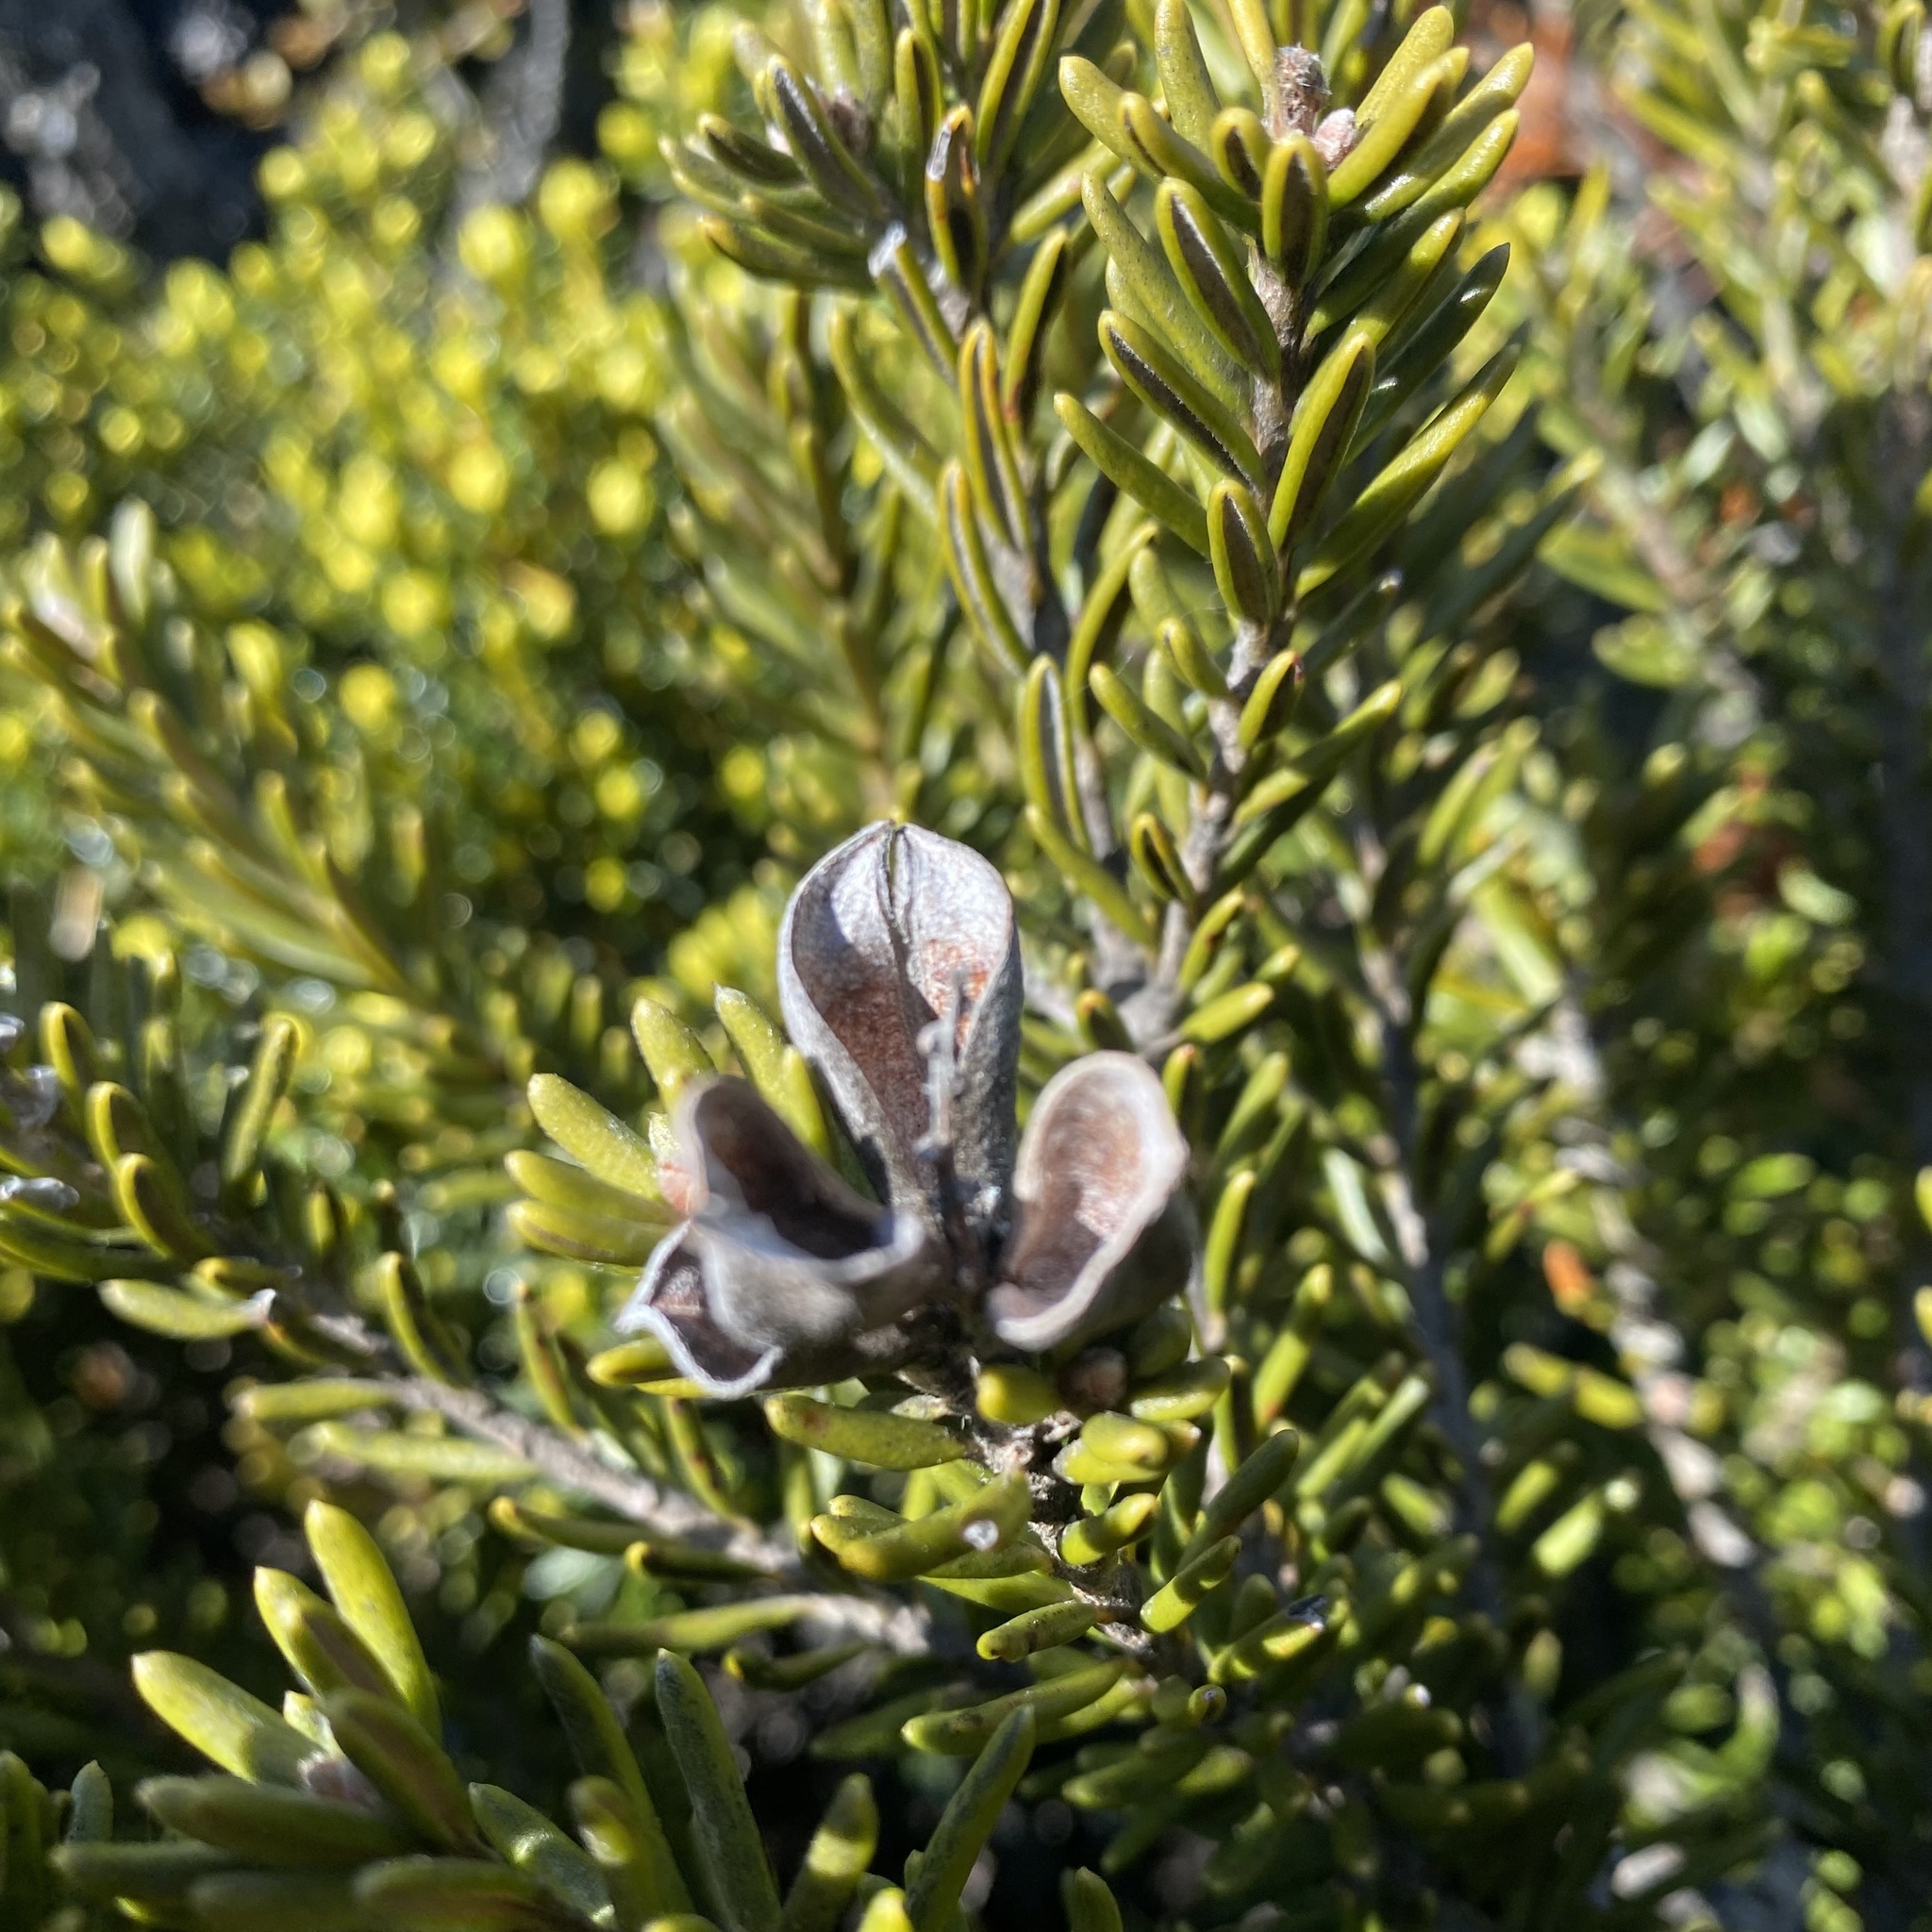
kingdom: Plantae
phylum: Tracheophyta
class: Magnoliopsida
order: Proteales
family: Proteaceae
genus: Orites
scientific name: Orites revolutus
